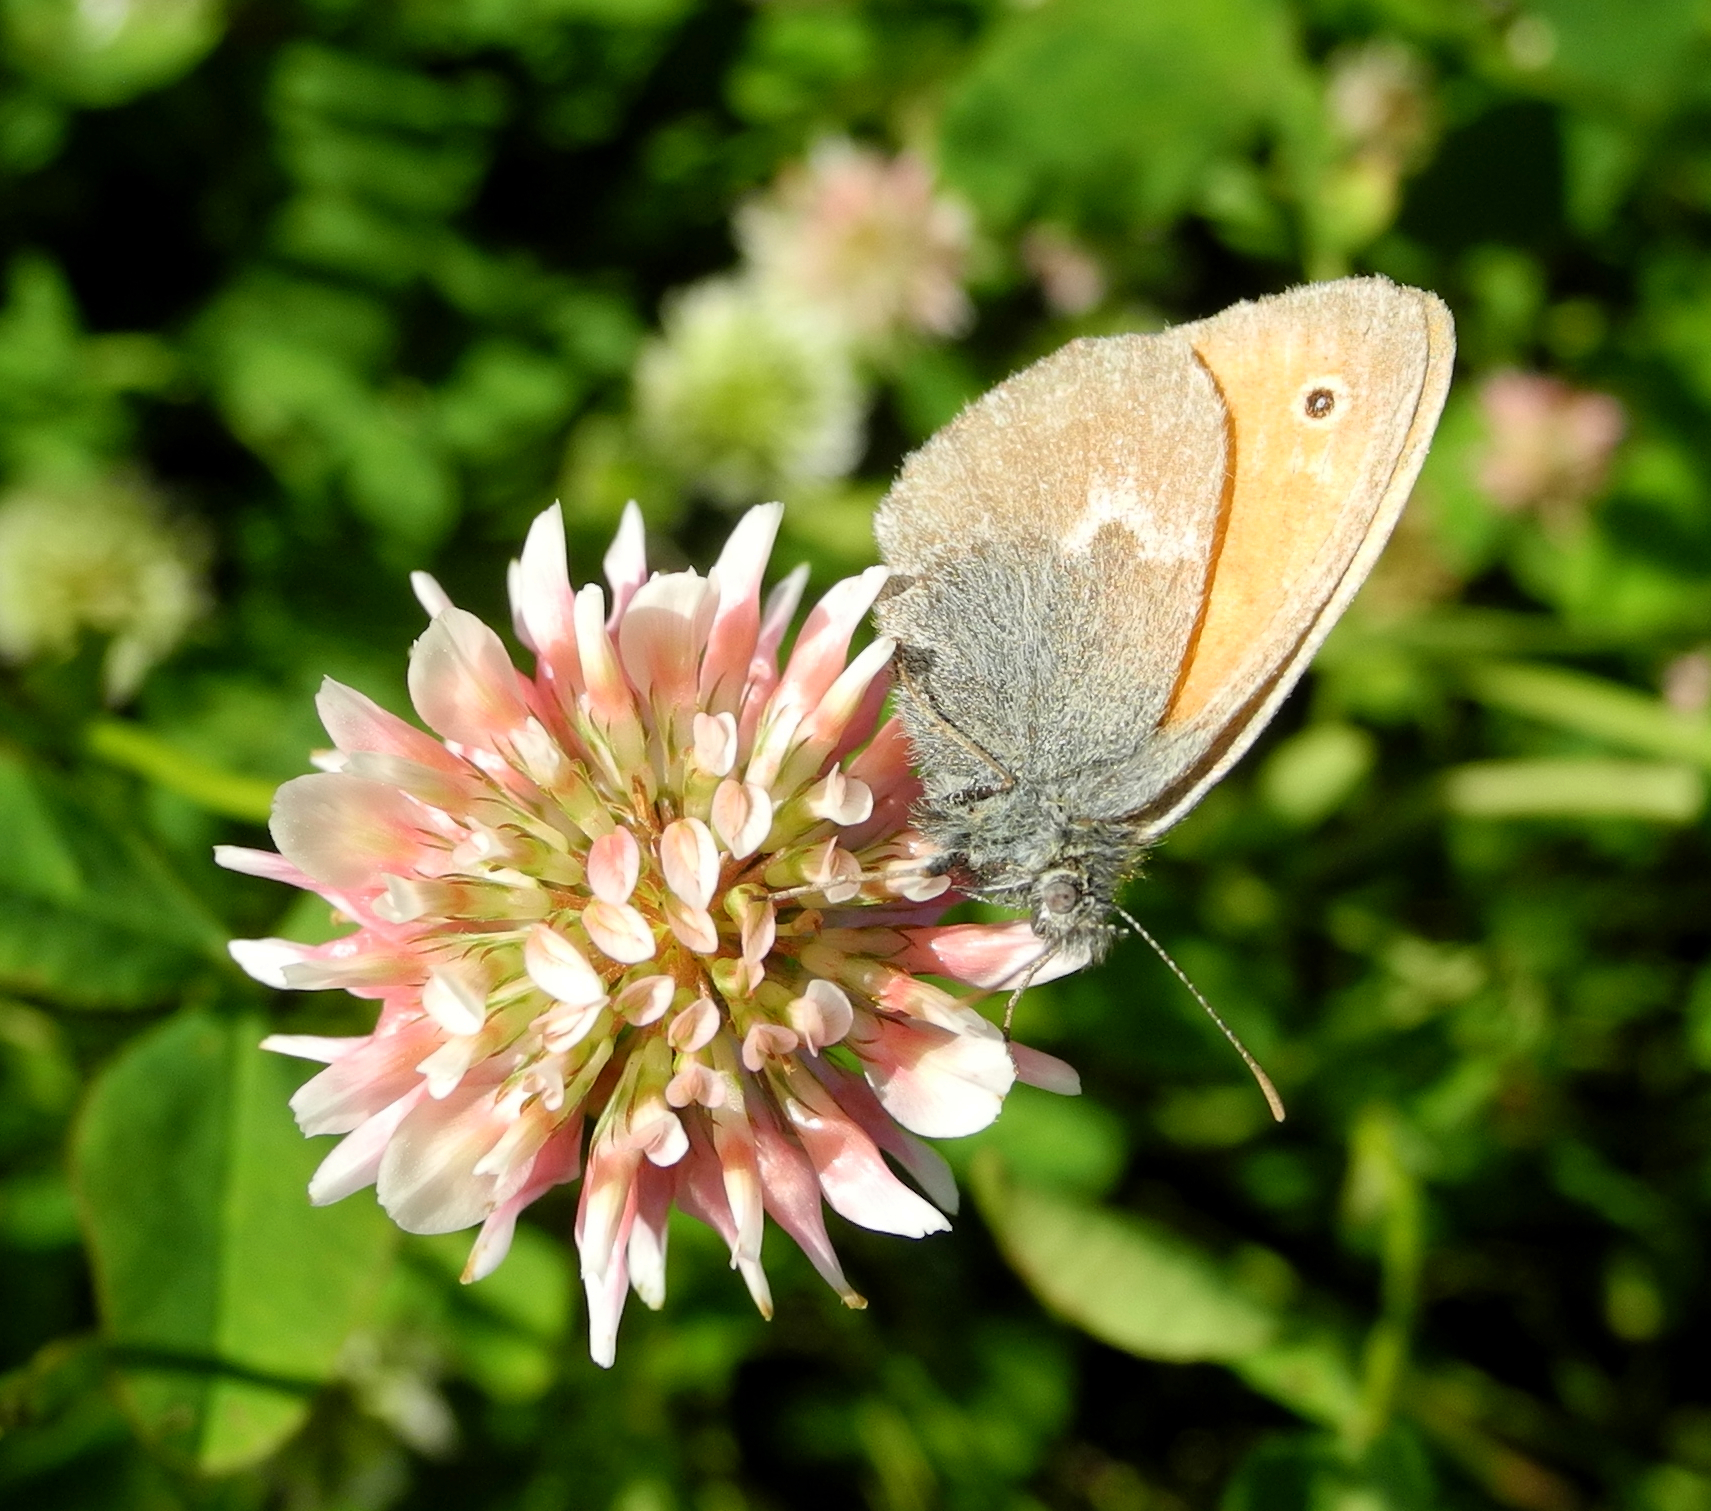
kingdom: Animalia
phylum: Arthropoda
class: Insecta
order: Lepidoptera
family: Nymphalidae
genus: Coenonympha
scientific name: Coenonympha pamphilus
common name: Small heath
